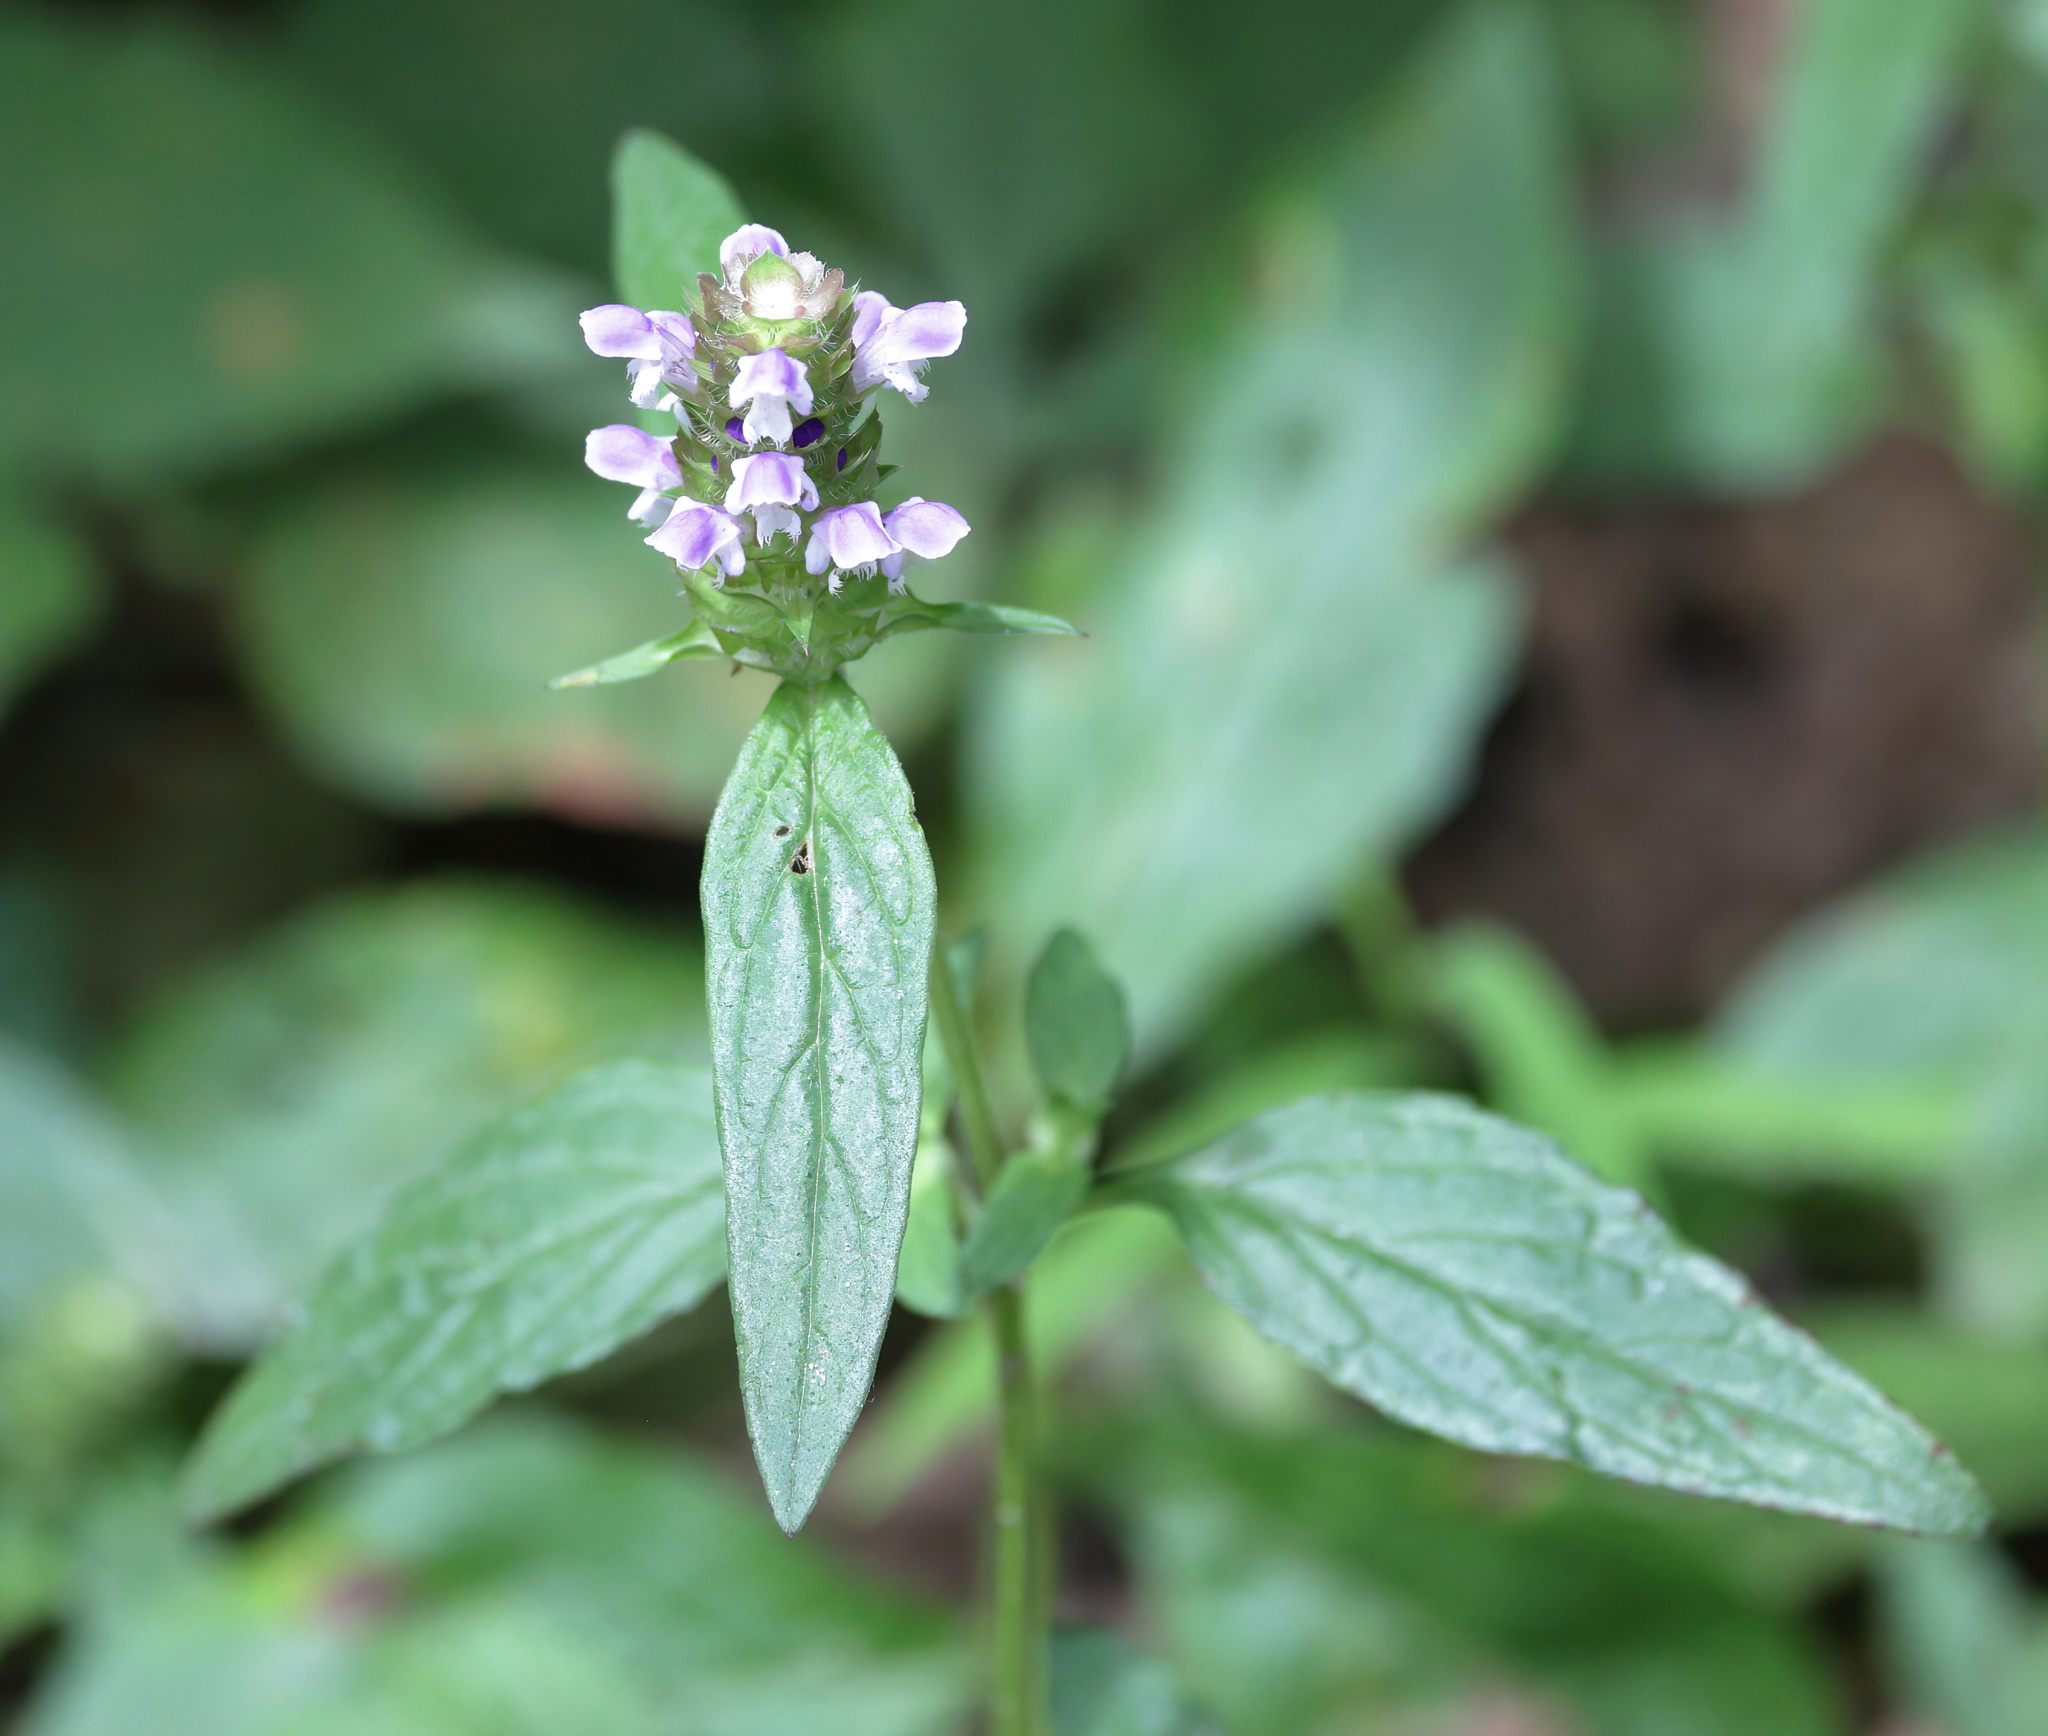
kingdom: Plantae
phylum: Tracheophyta
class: Magnoliopsida
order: Lamiales
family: Lamiaceae
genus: Prunella
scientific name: Prunella vulgaris
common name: Heal-all
